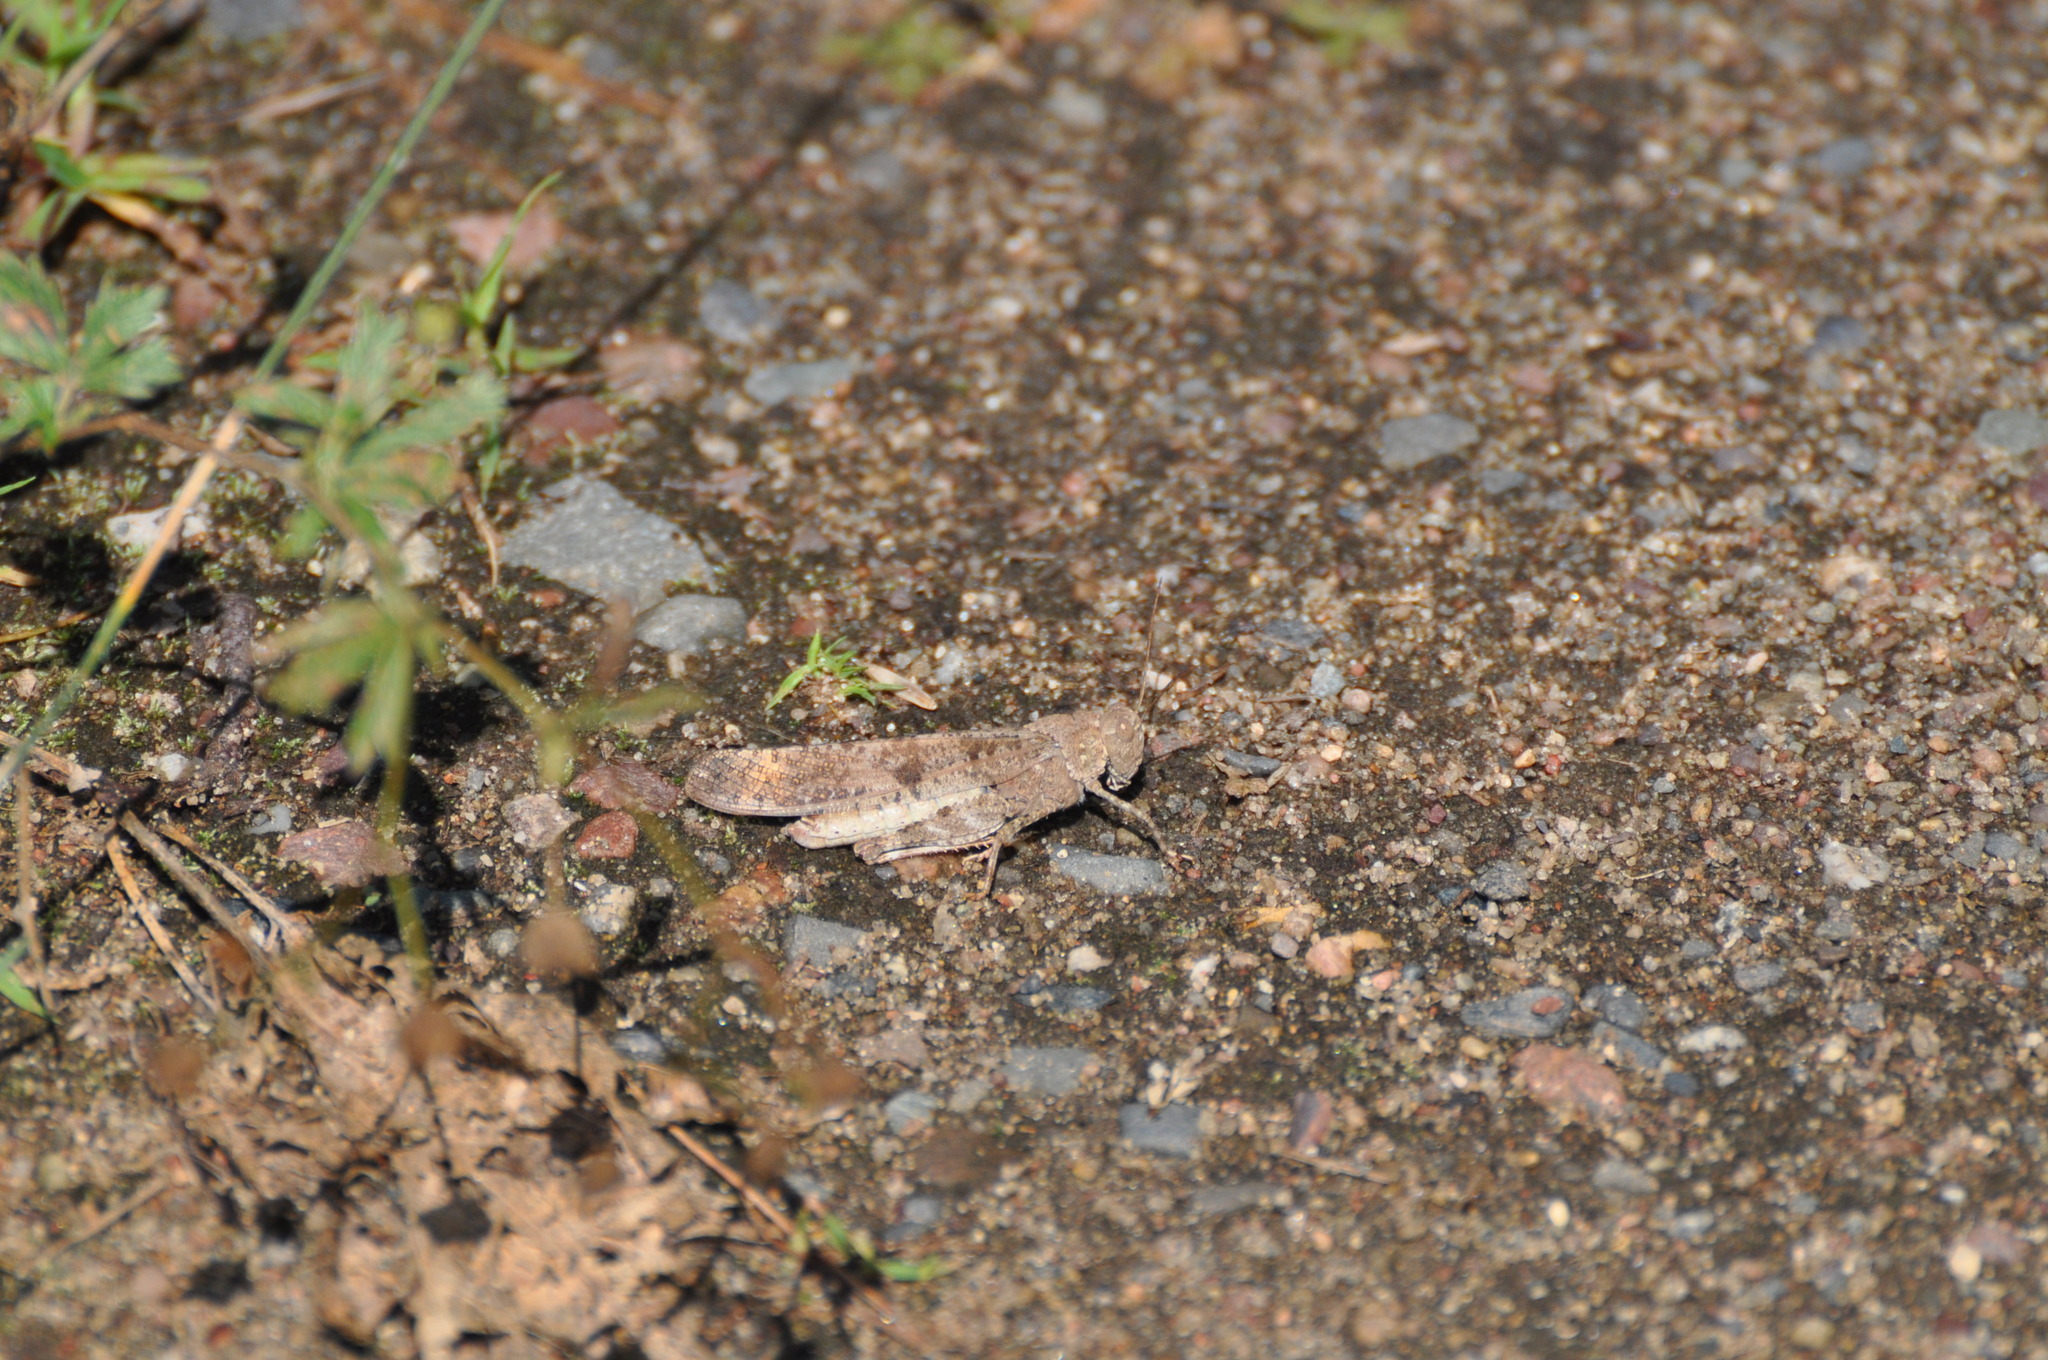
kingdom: Animalia
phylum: Arthropoda
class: Insecta
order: Orthoptera
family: Acrididae
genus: Dissosteira
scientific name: Dissosteira carolina
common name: Carolina grasshopper
